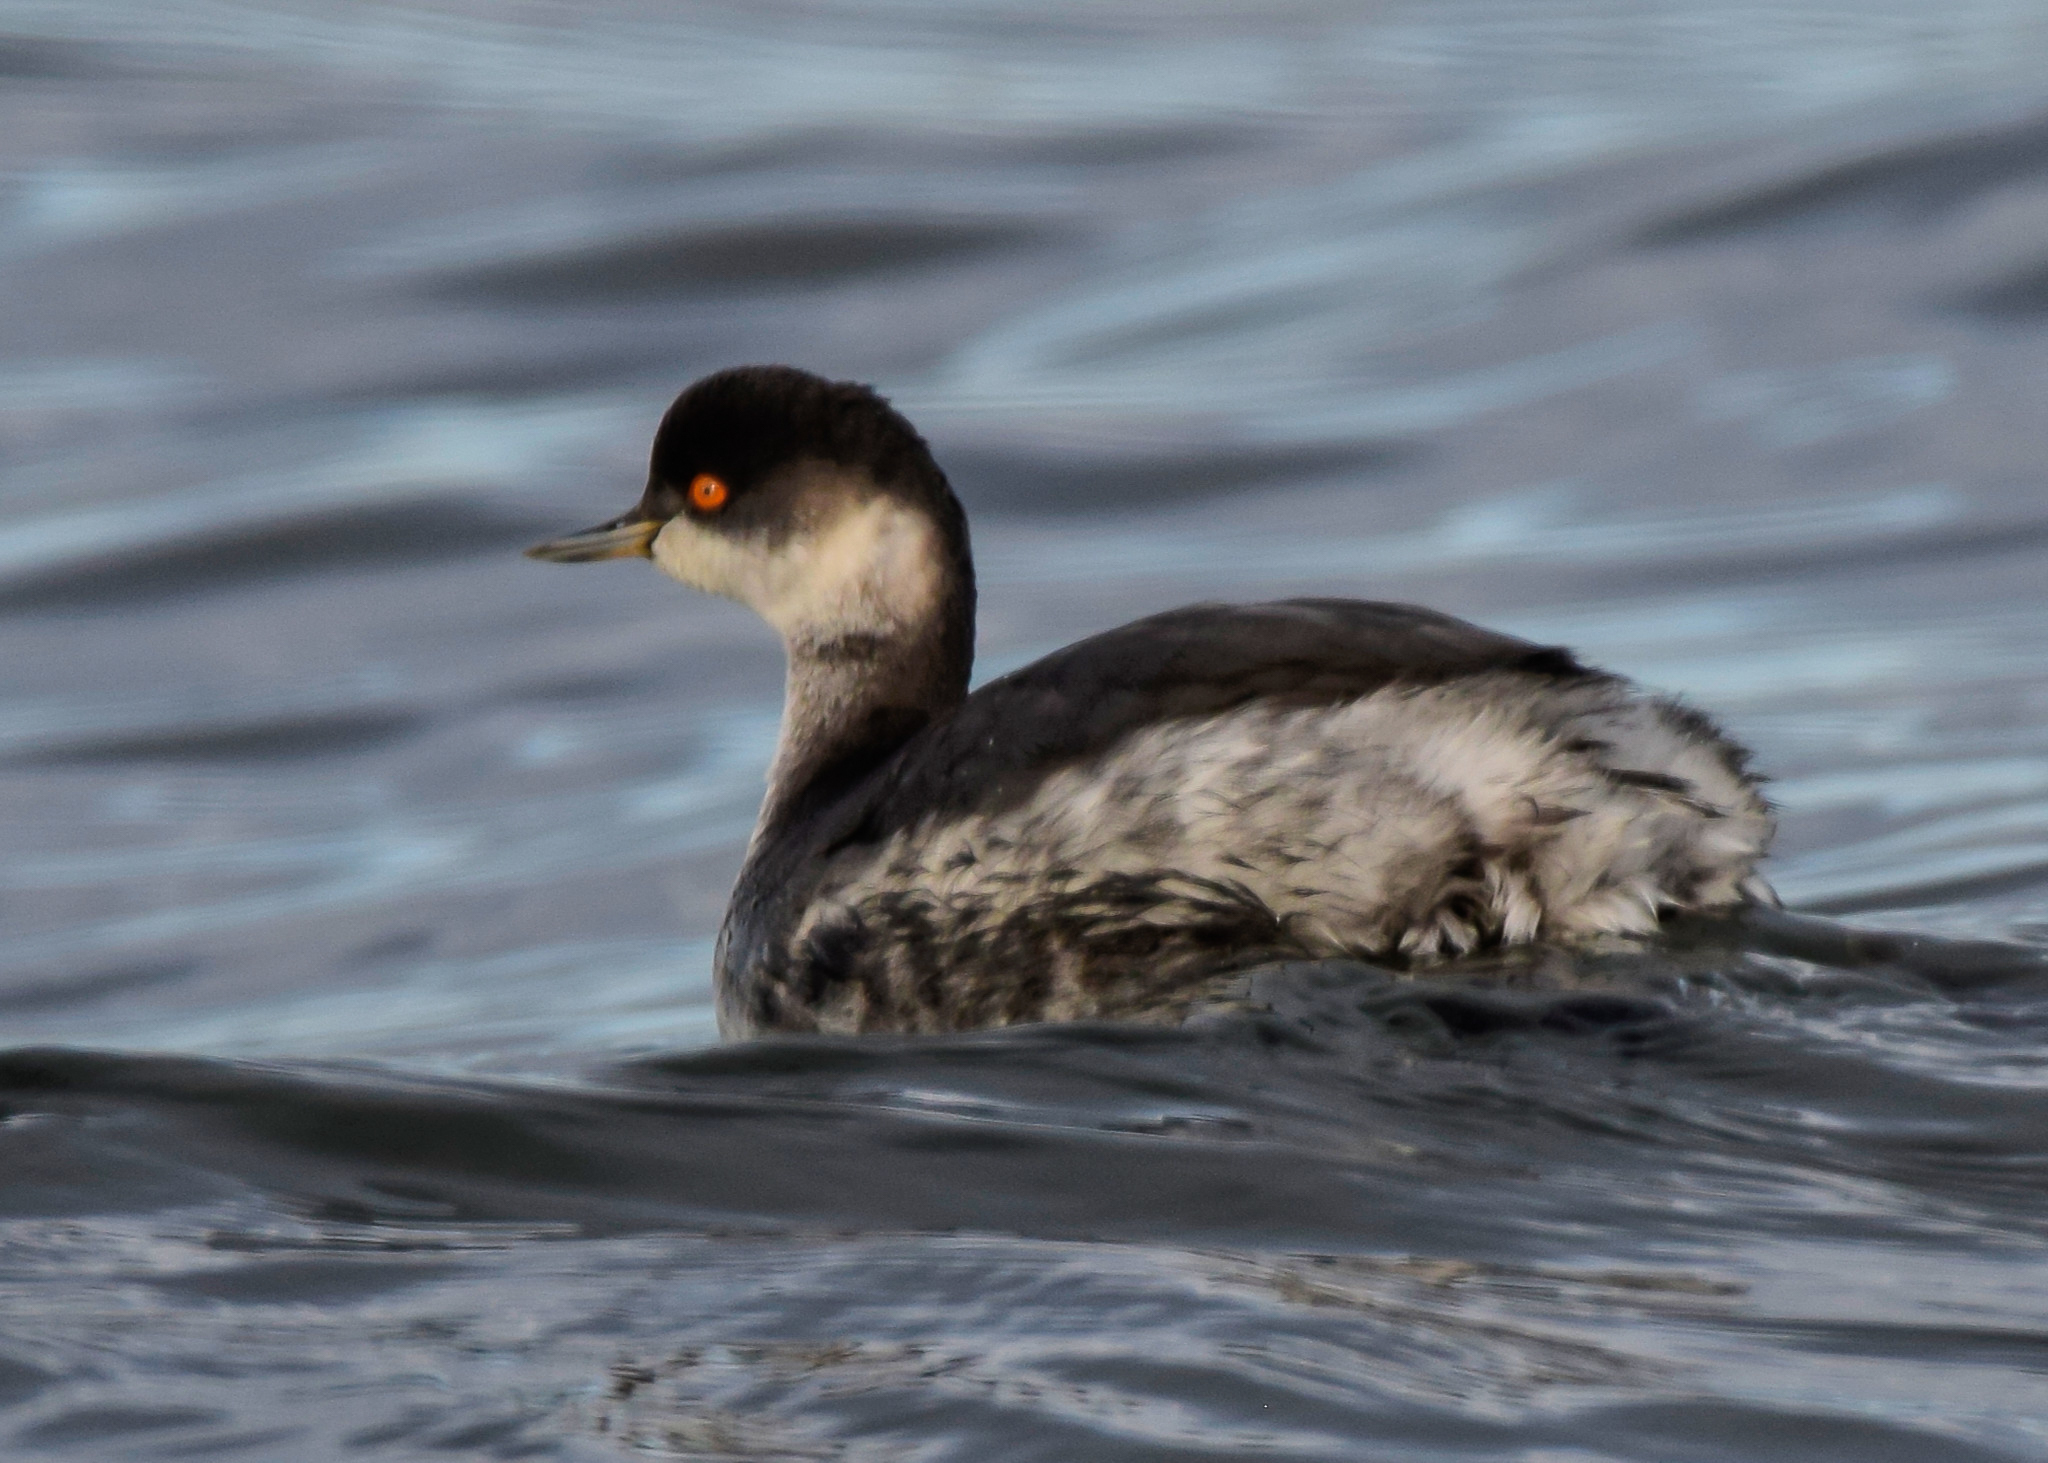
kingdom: Animalia
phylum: Chordata
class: Aves
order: Podicipediformes
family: Podicipedidae
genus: Podiceps
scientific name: Podiceps nigricollis
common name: Black-necked grebe
